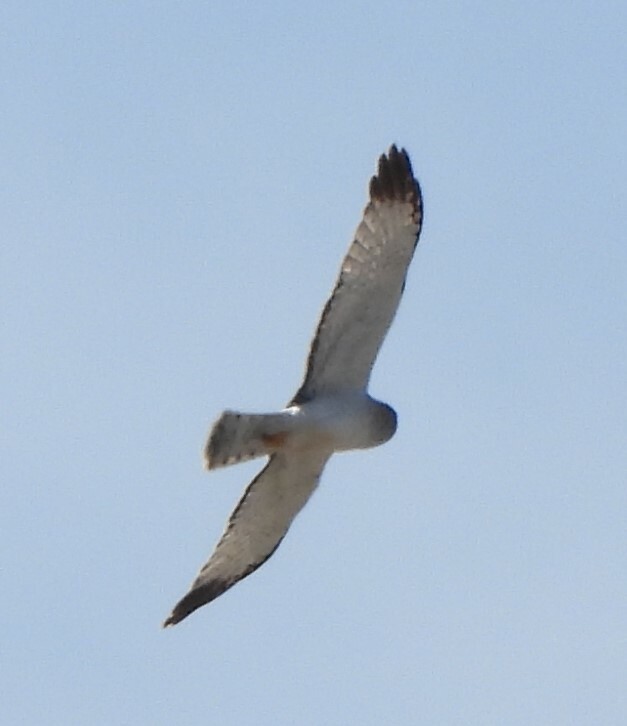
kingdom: Animalia
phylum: Chordata
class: Aves
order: Accipitriformes
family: Accipitridae
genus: Circus
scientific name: Circus cyaneus
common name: Hen harrier
